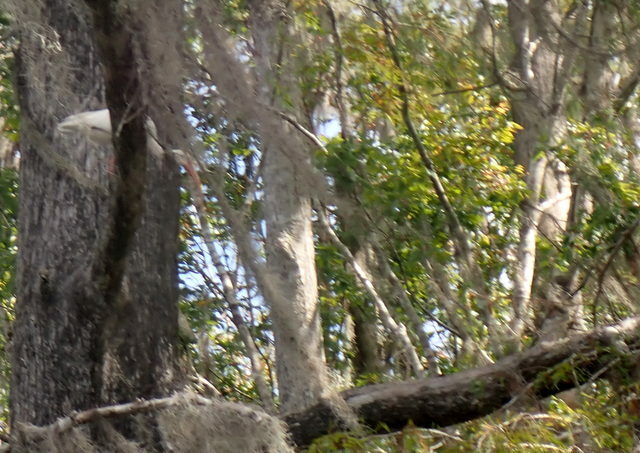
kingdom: Animalia
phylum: Chordata
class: Aves
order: Pelecaniformes
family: Threskiornithidae
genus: Eudocimus
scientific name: Eudocimus albus
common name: White ibis
